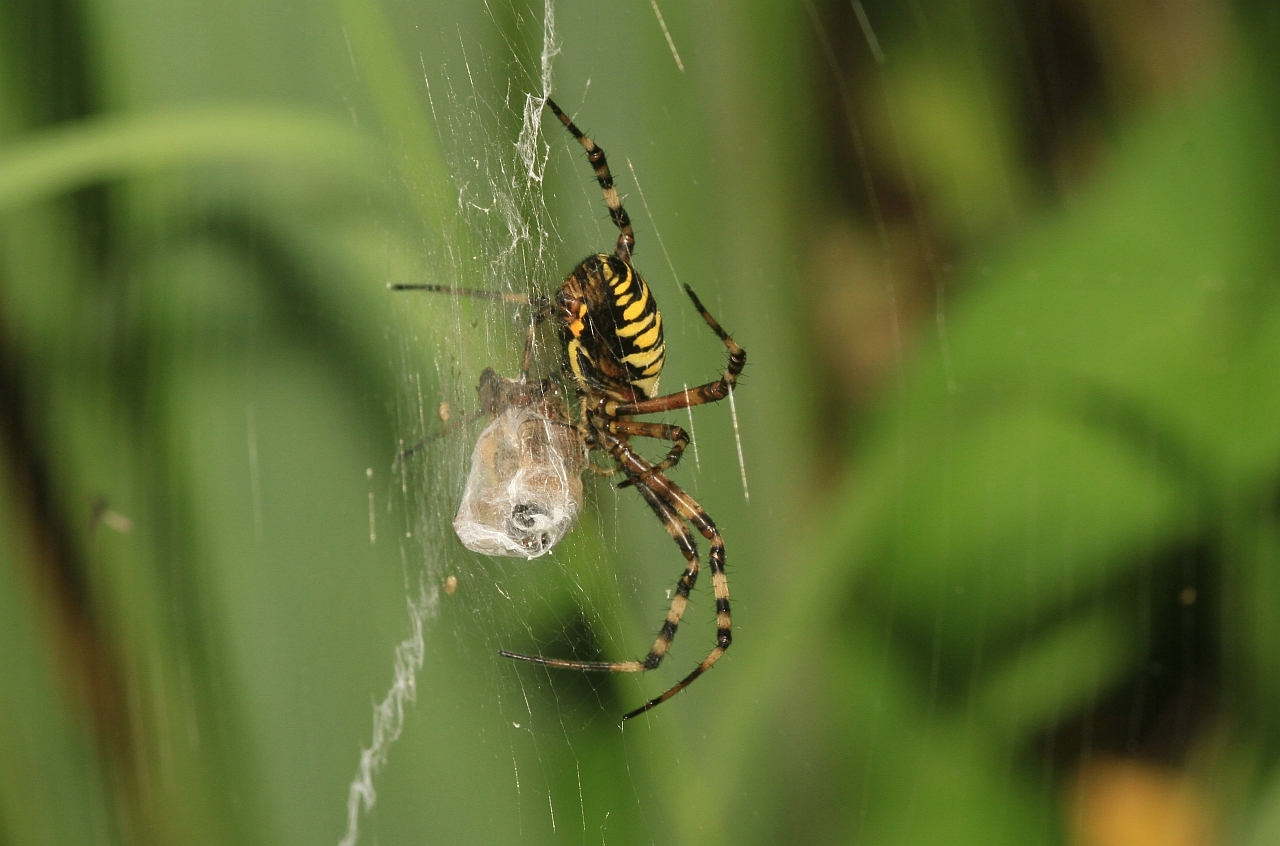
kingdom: Animalia
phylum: Arthropoda
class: Arachnida
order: Araneae
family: Araneidae
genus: Argiope
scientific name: Argiope bruennichi
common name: Wasp spider
